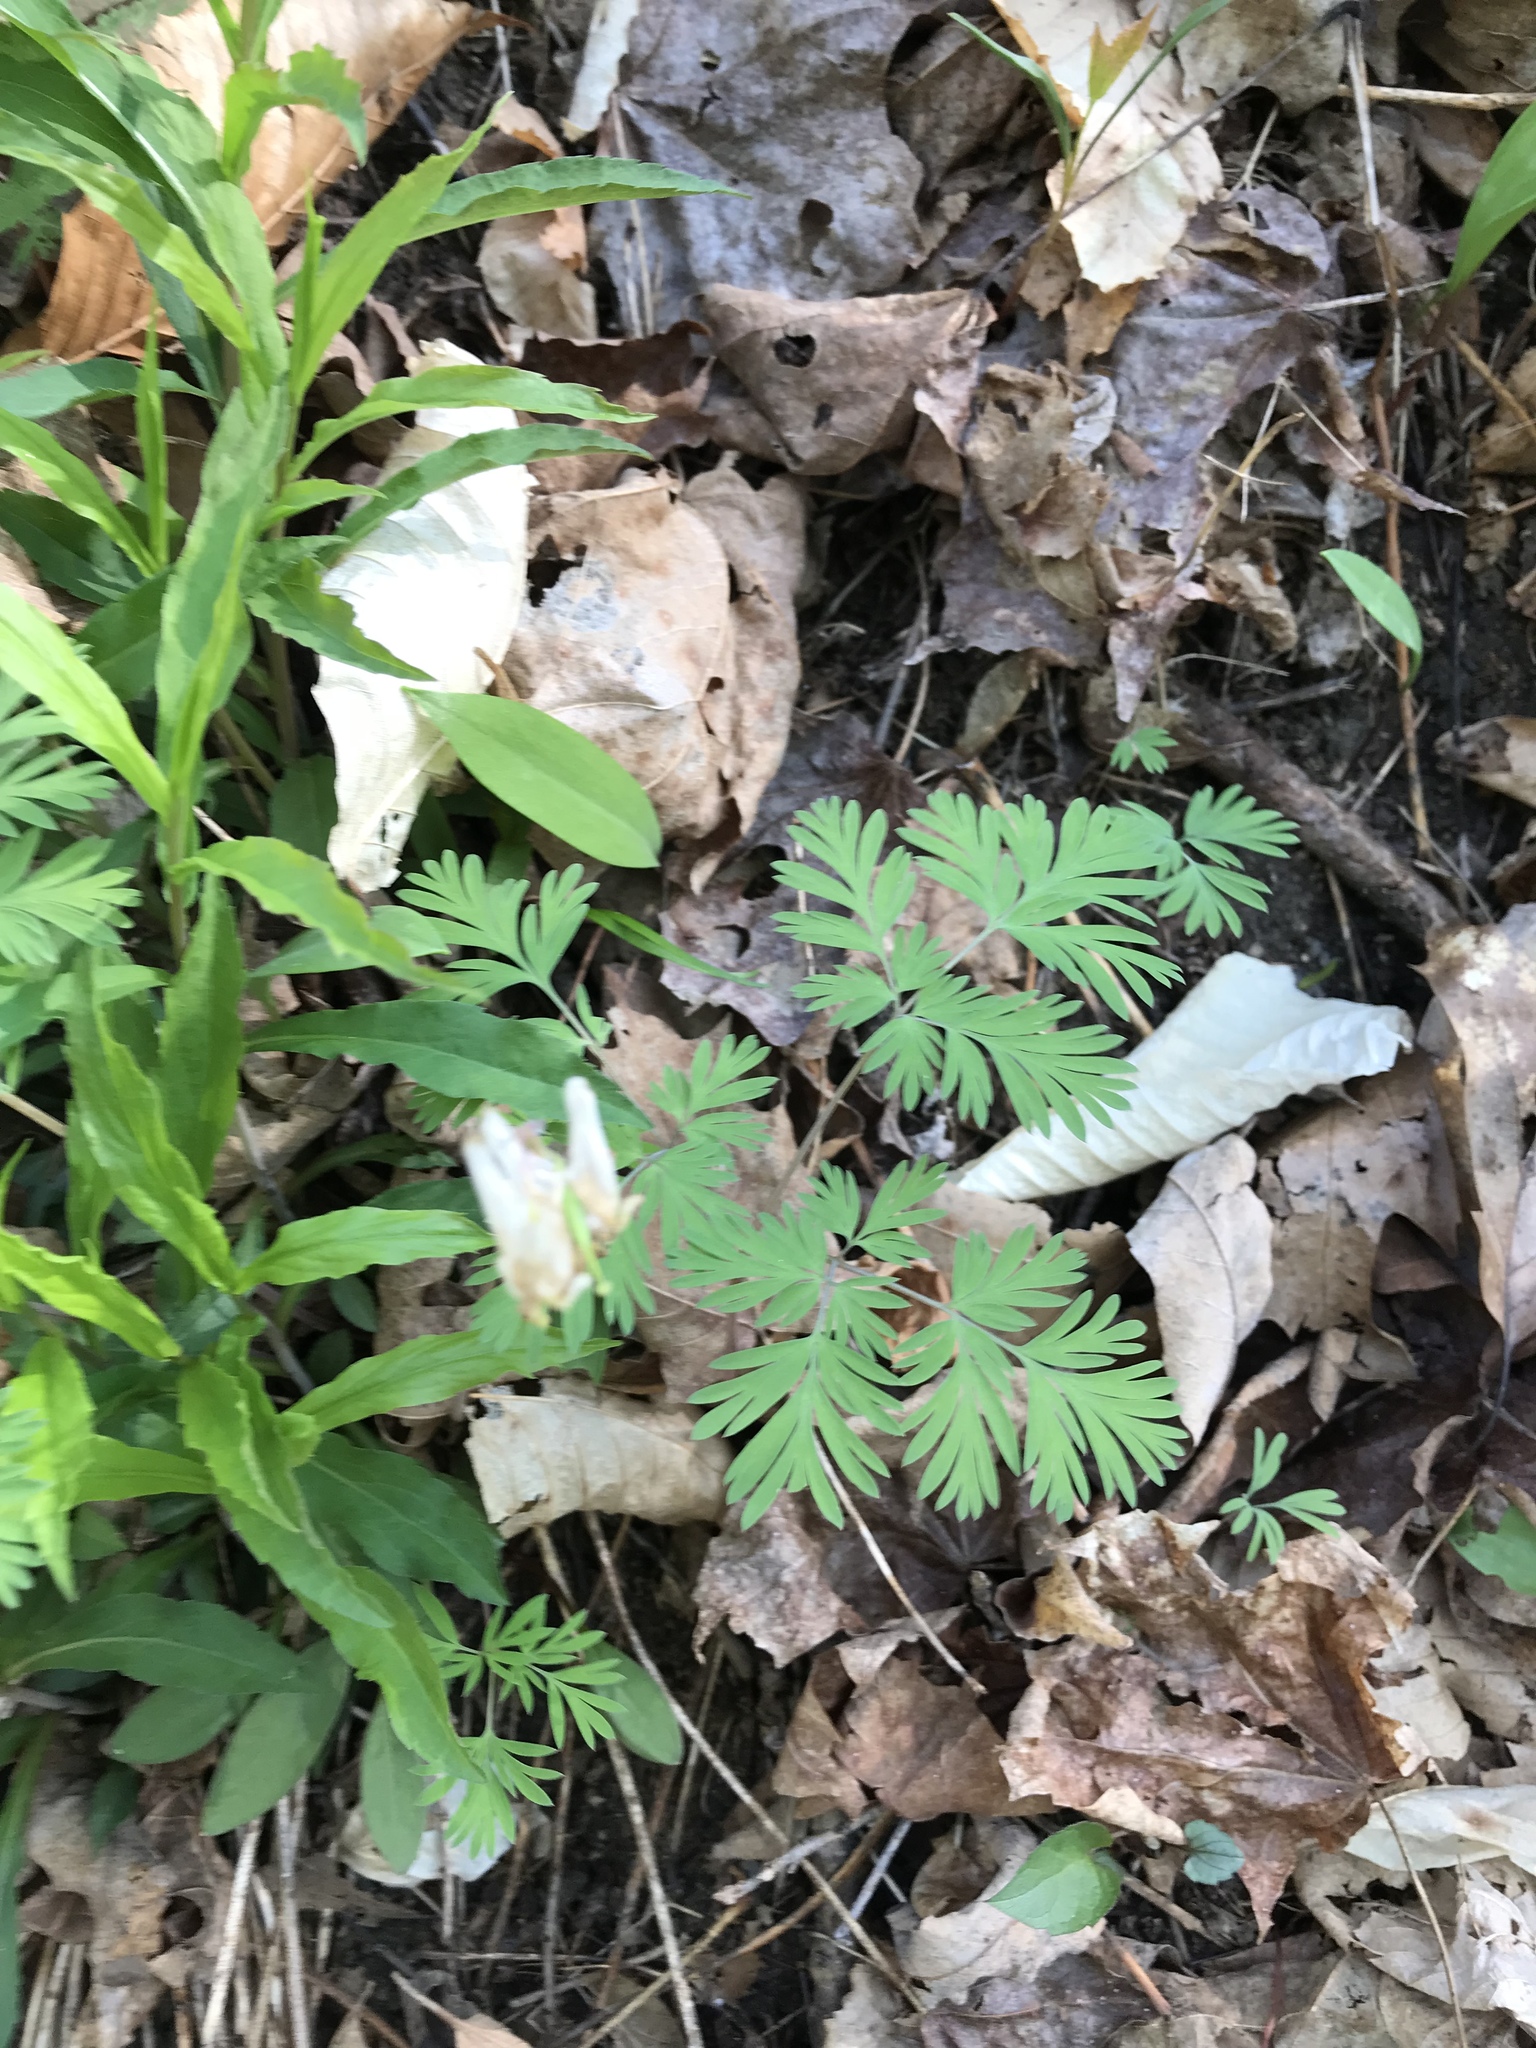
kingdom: Plantae
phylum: Tracheophyta
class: Magnoliopsida
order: Ranunculales
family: Papaveraceae
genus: Dicentra
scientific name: Dicentra cucullaria
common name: Dutchman's breeches
